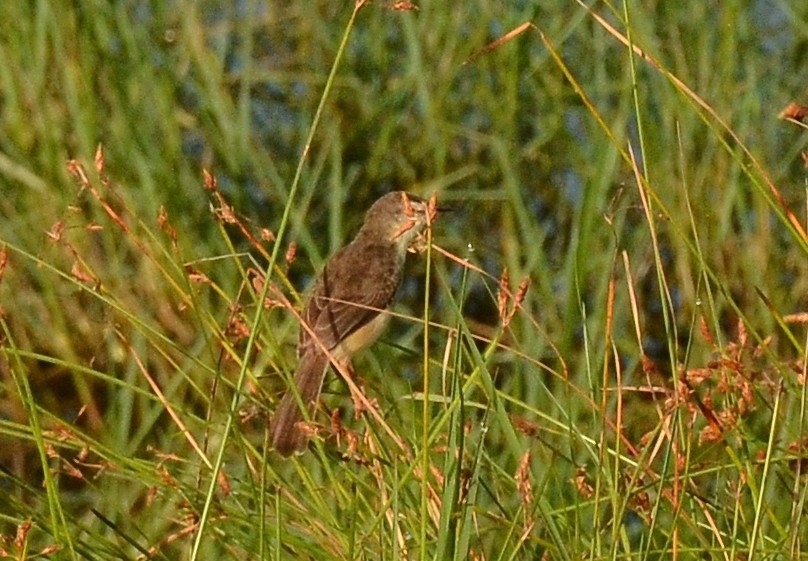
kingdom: Animalia
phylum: Chordata
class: Aves
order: Passeriformes
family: Cisticolidae
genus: Prinia
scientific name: Prinia inornata
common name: Plain prinia
